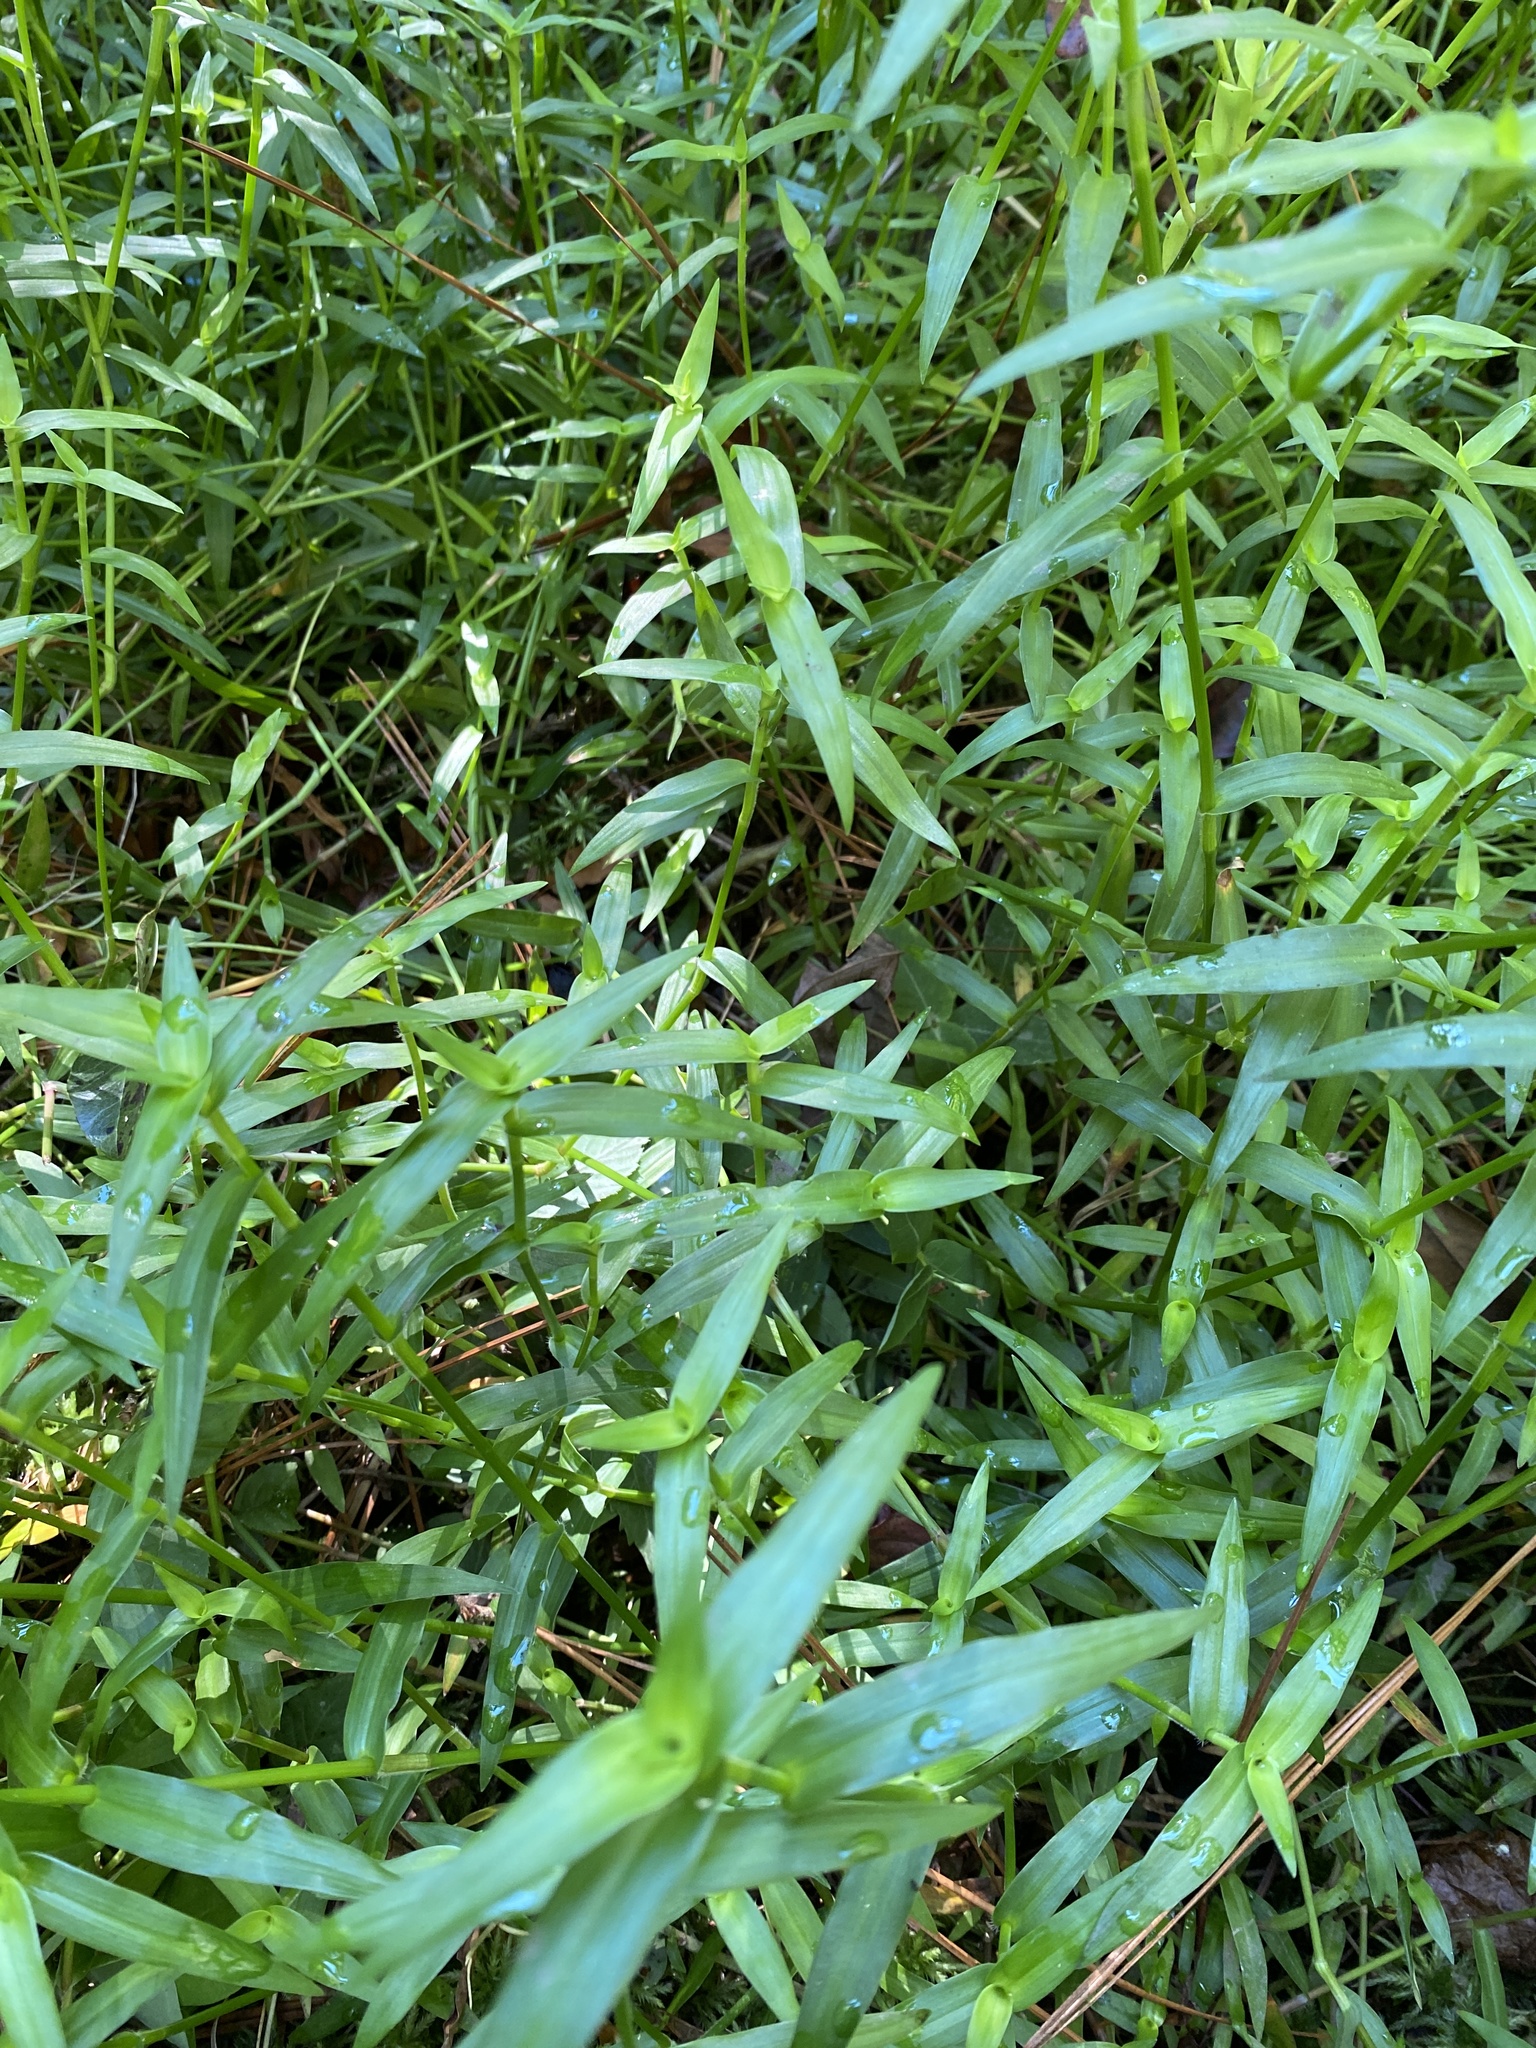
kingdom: Plantae
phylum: Tracheophyta
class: Liliopsida
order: Commelinales
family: Commelinaceae
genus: Murdannia
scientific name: Murdannia keisak
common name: Wartremoving herb
